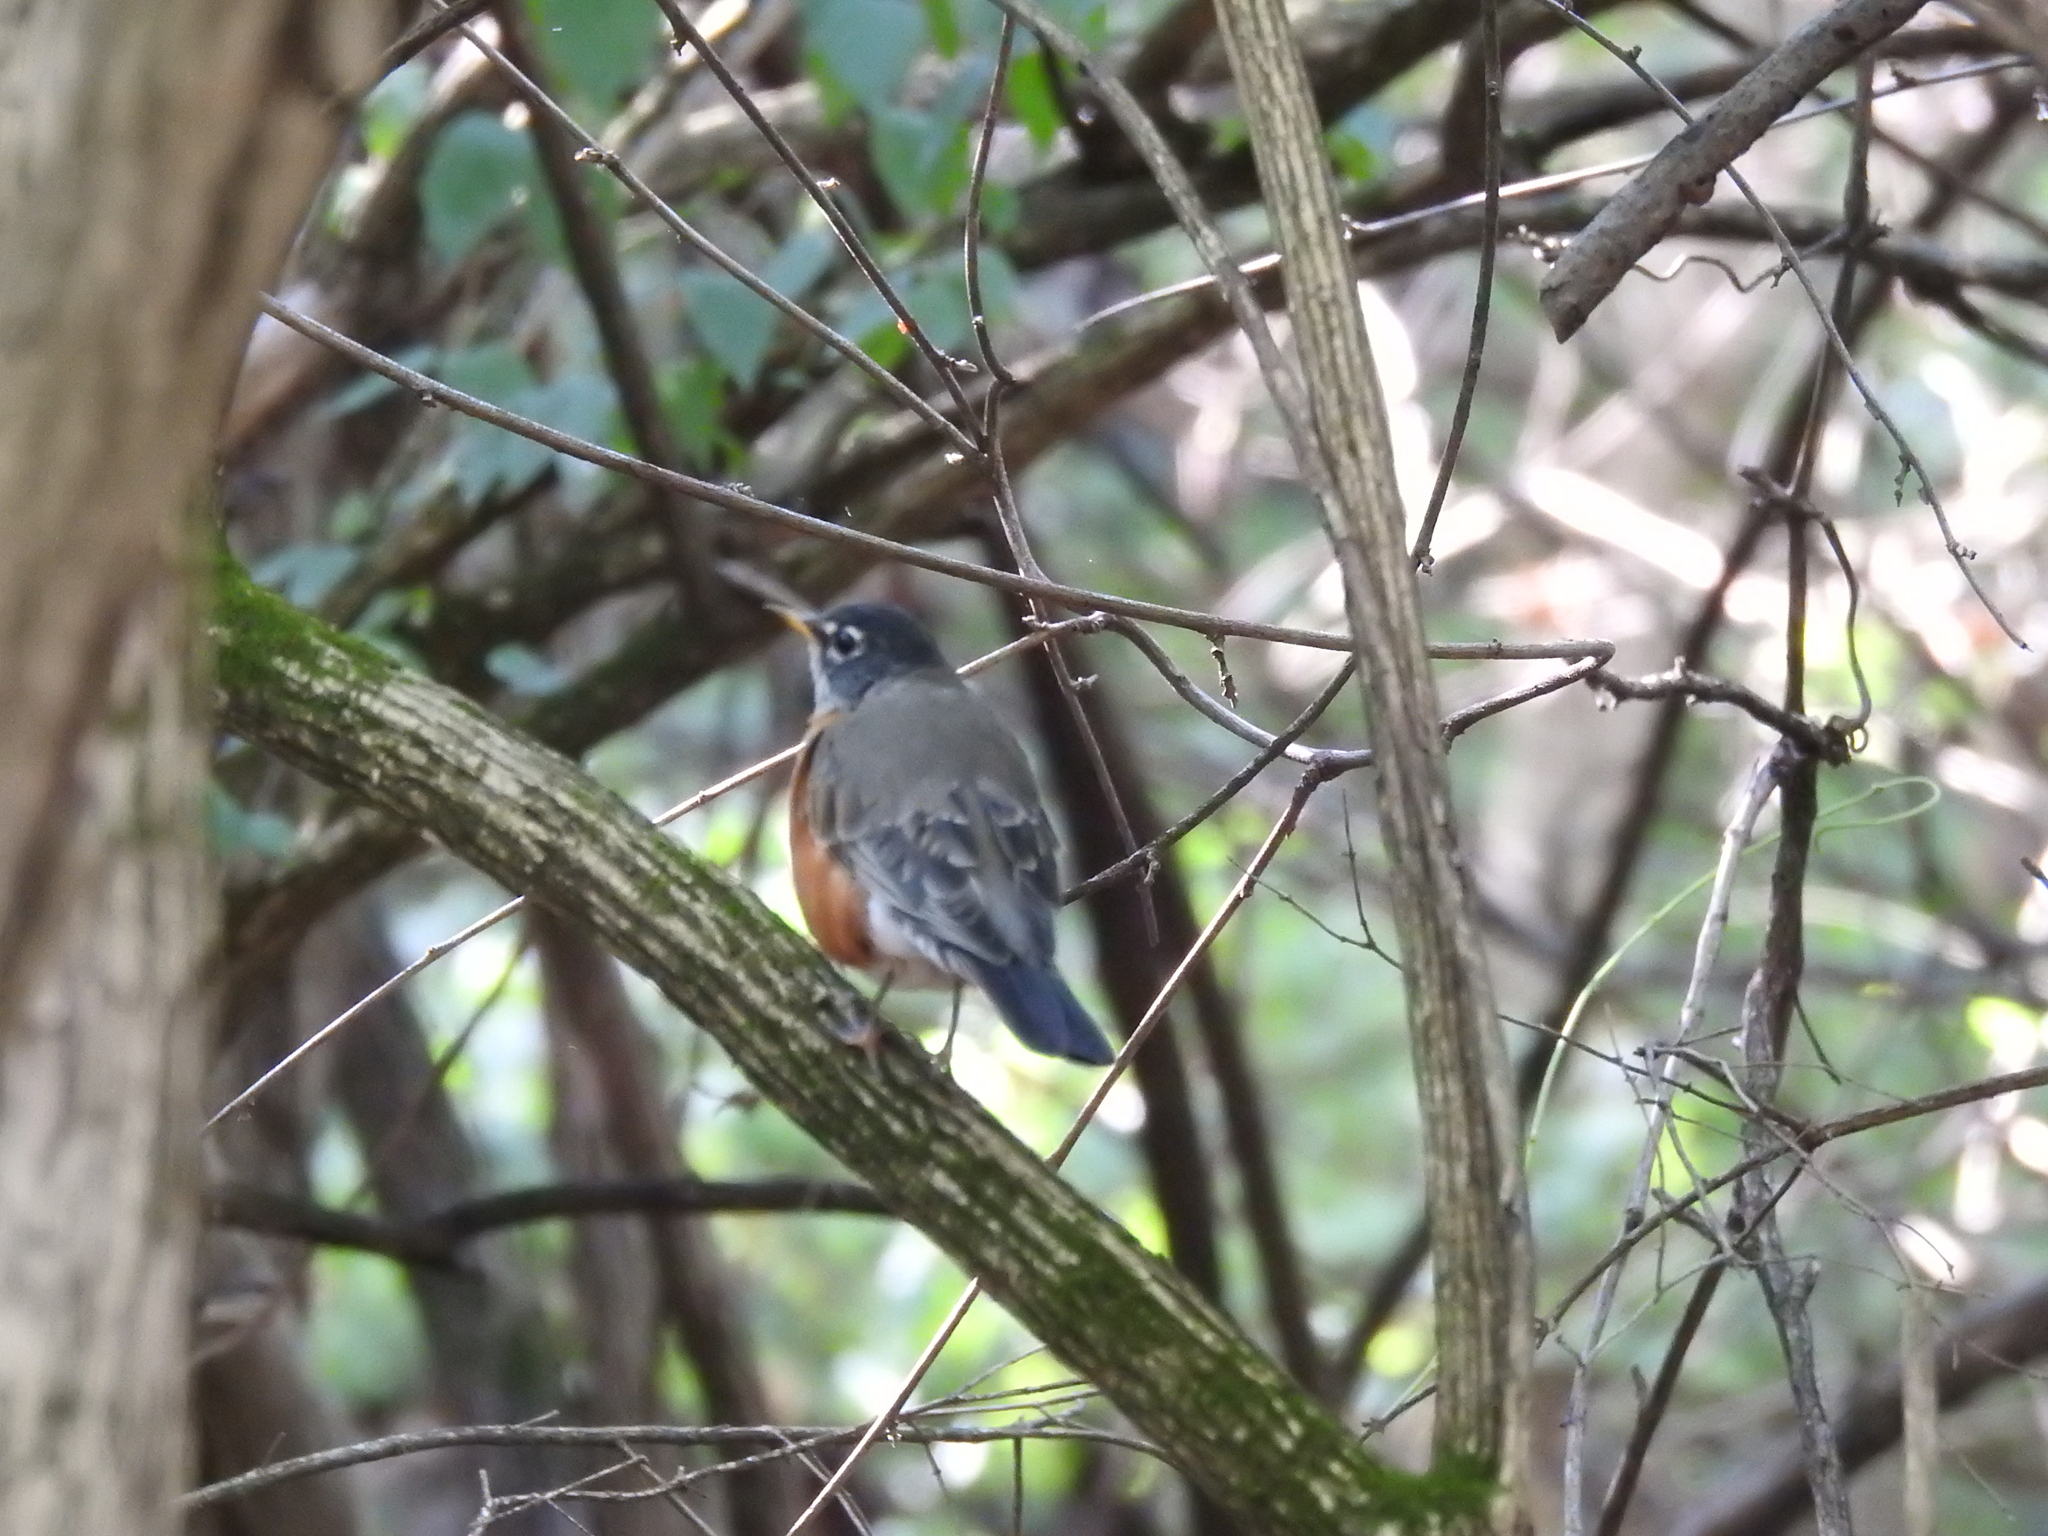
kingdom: Animalia
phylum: Chordata
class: Aves
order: Passeriformes
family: Turdidae
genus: Turdus
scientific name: Turdus migratorius
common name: American robin
